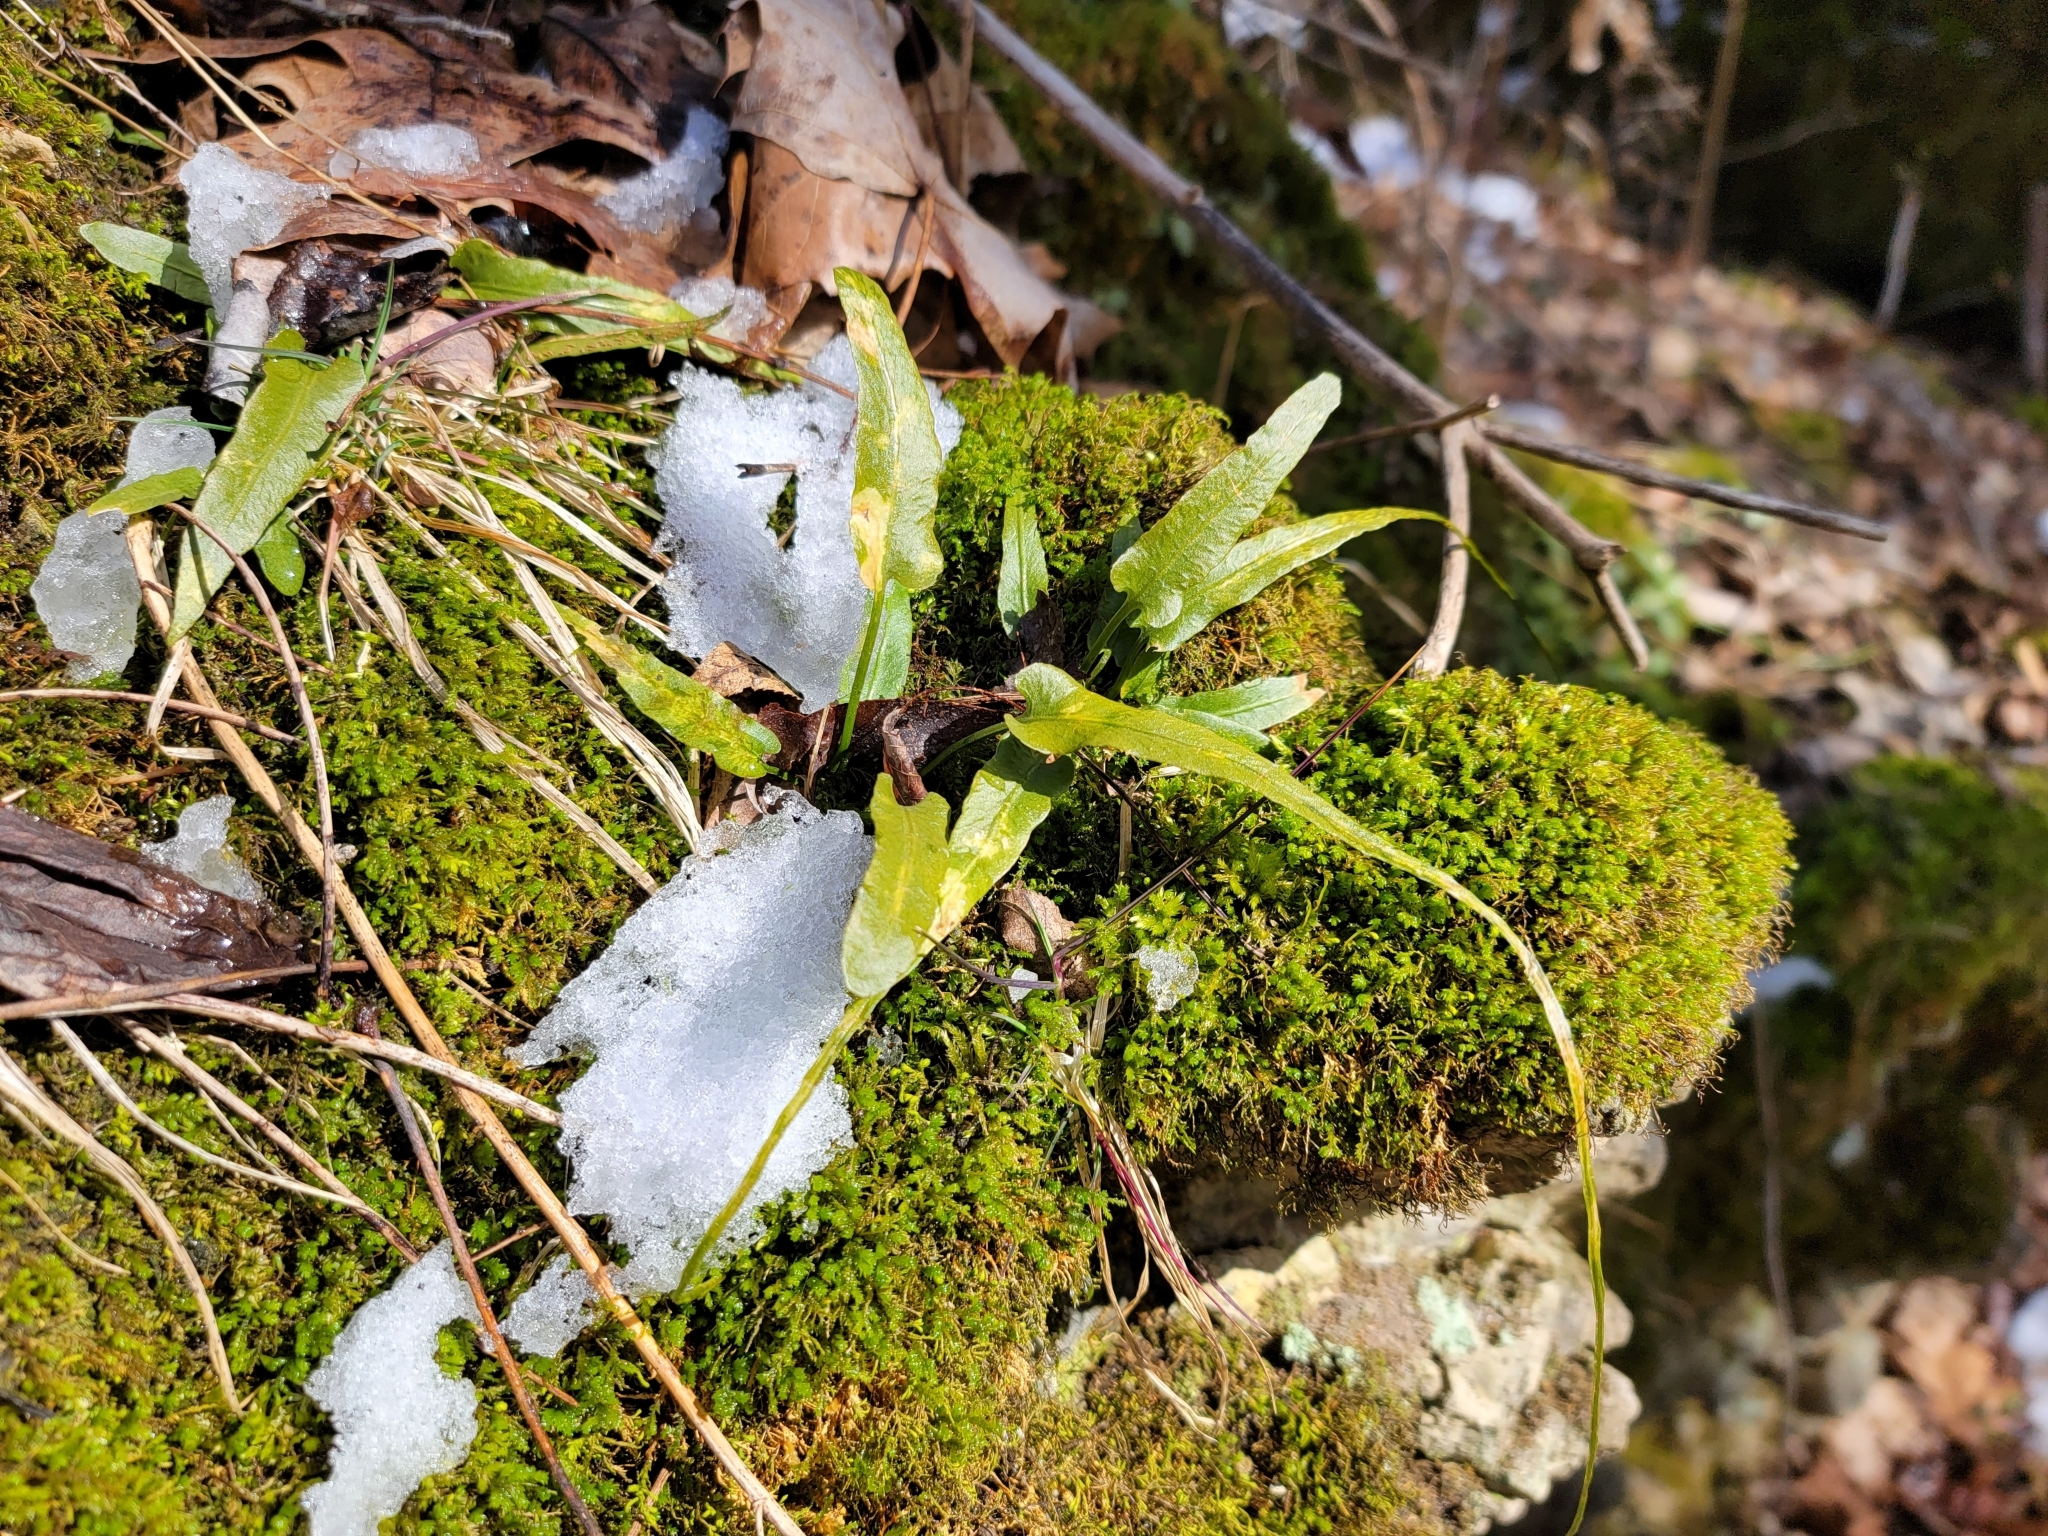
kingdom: Plantae
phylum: Tracheophyta
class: Polypodiopsida
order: Polypodiales
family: Aspleniaceae
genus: Asplenium
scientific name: Asplenium rhizophyllum
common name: Walking fern
